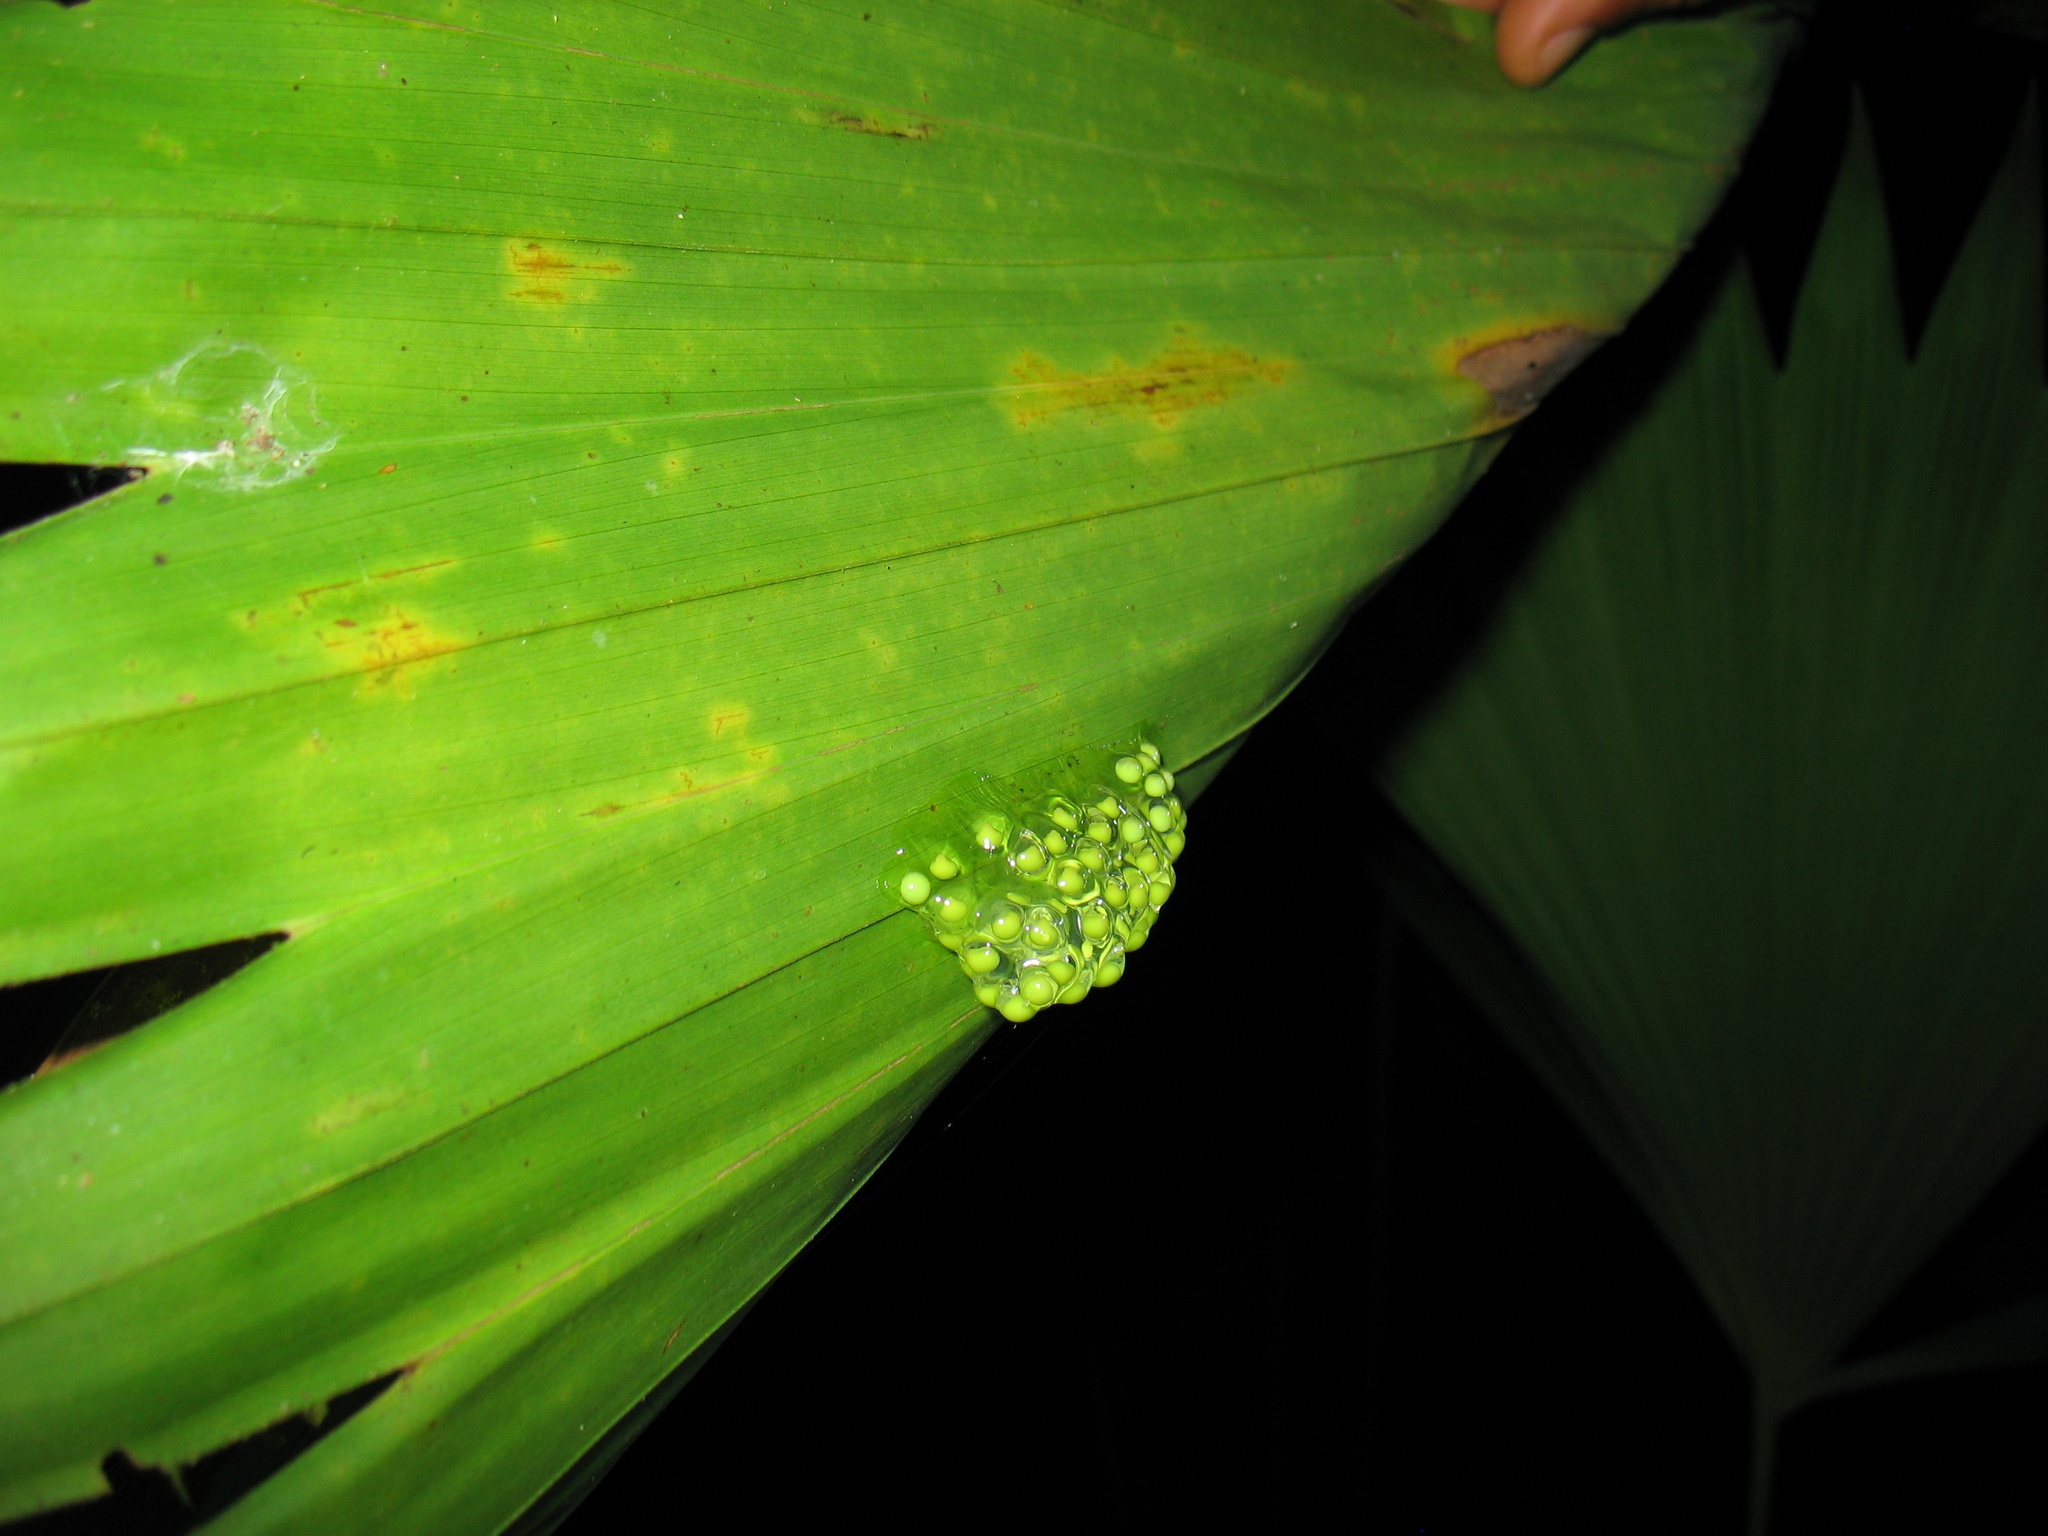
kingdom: Animalia
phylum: Chordata
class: Amphibia
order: Anura
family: Phyllomedusidae
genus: Agalychnis
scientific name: Agalychnis callidryas
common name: Red-eyed treefrog
